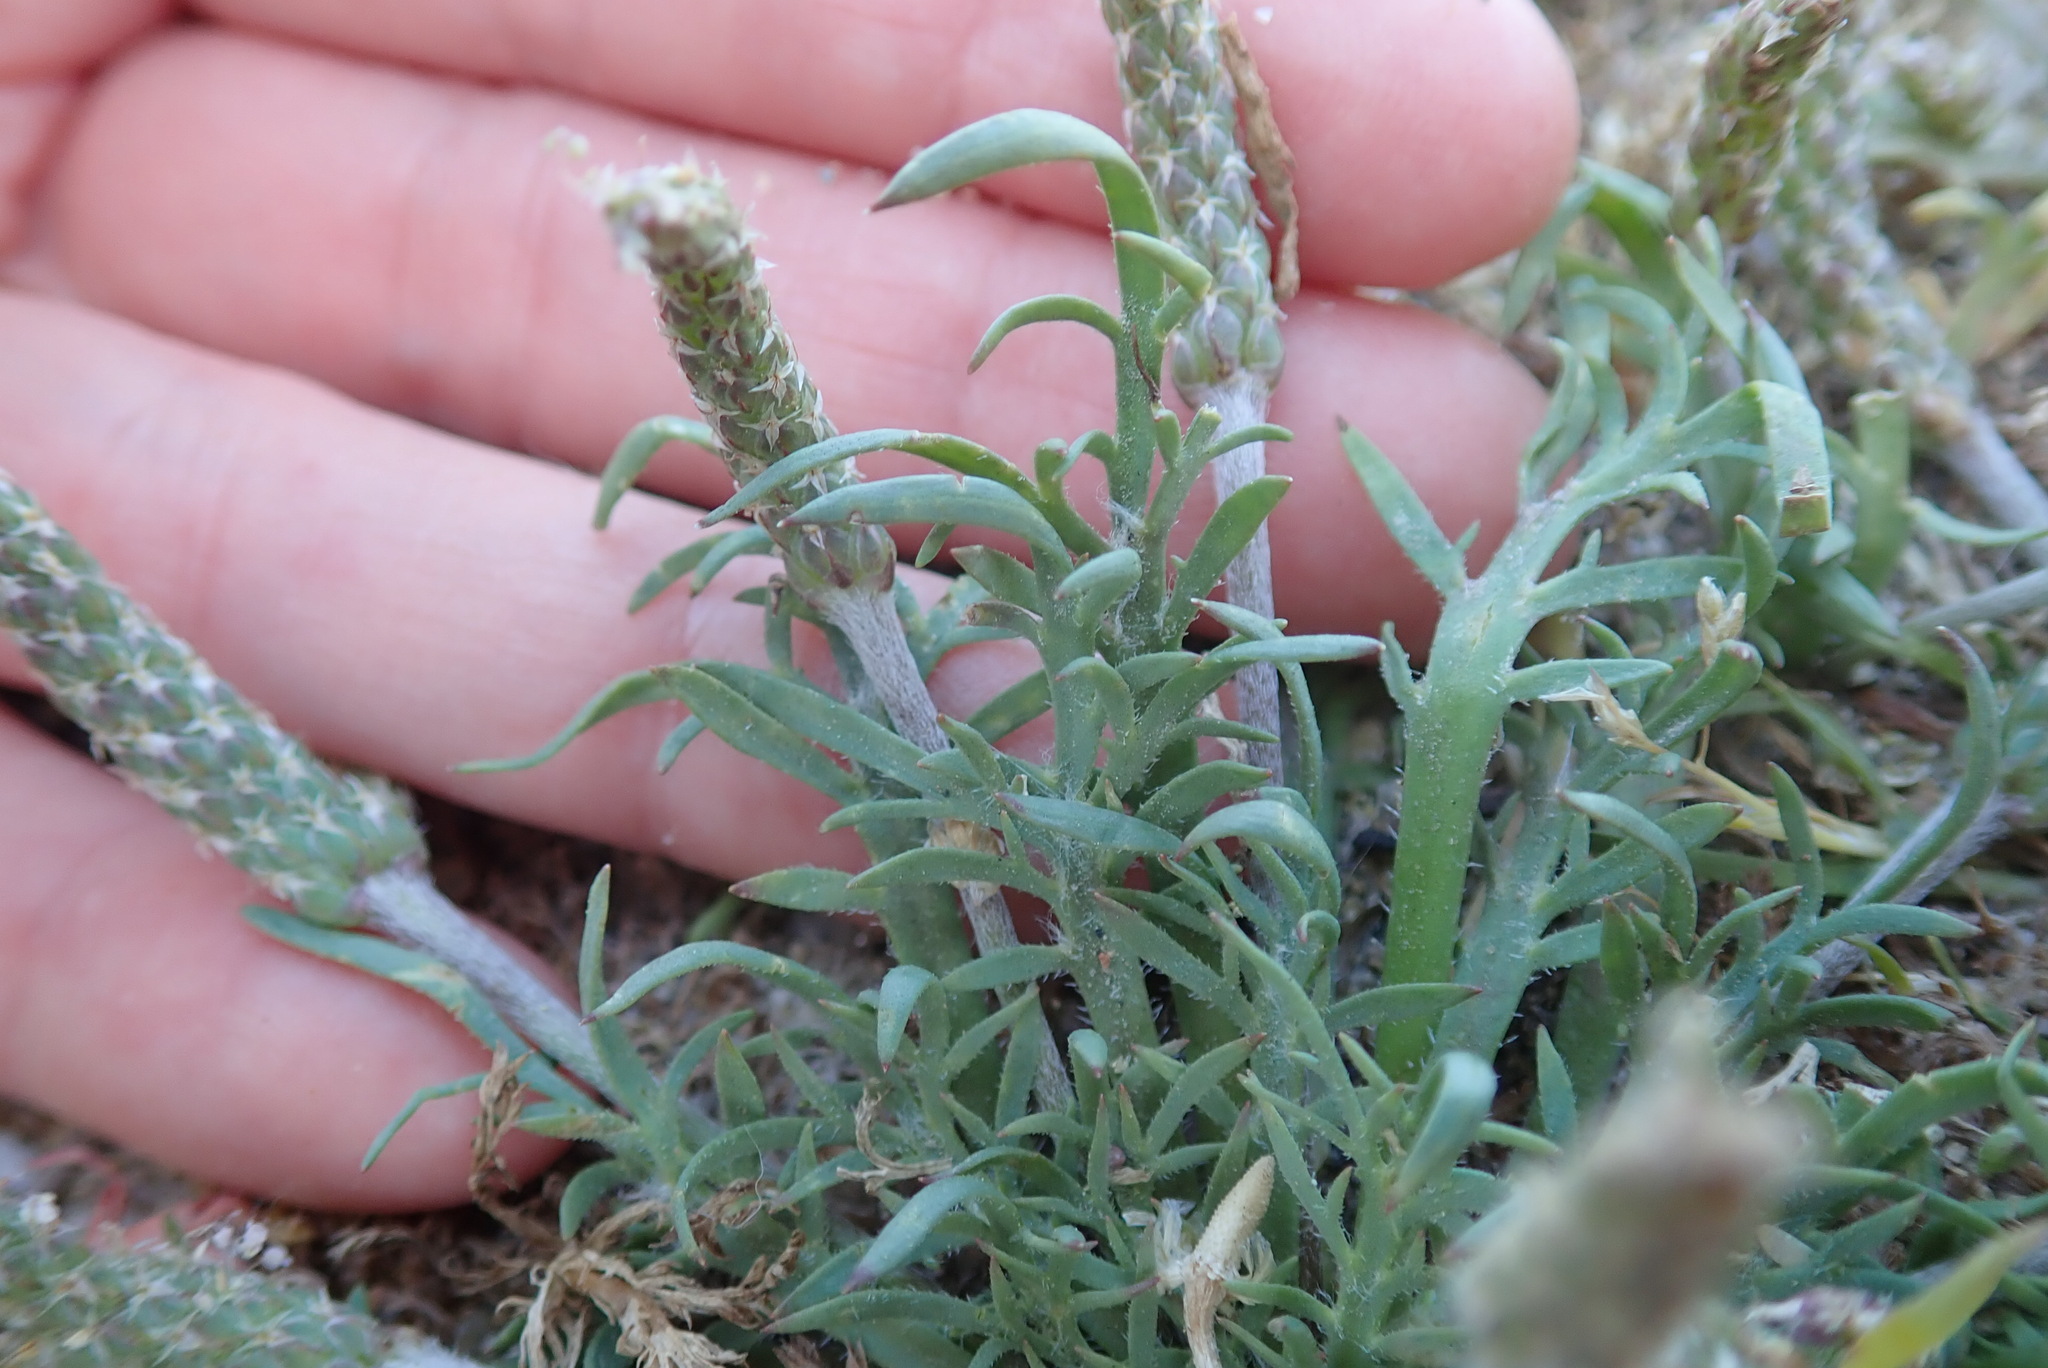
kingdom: Plantae
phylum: Tracheophyta
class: Magnoliopsida
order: Lamiales
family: Plantaginaceae
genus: Plantago
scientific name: Plantago coronopus
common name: Buck's-horn plantain
